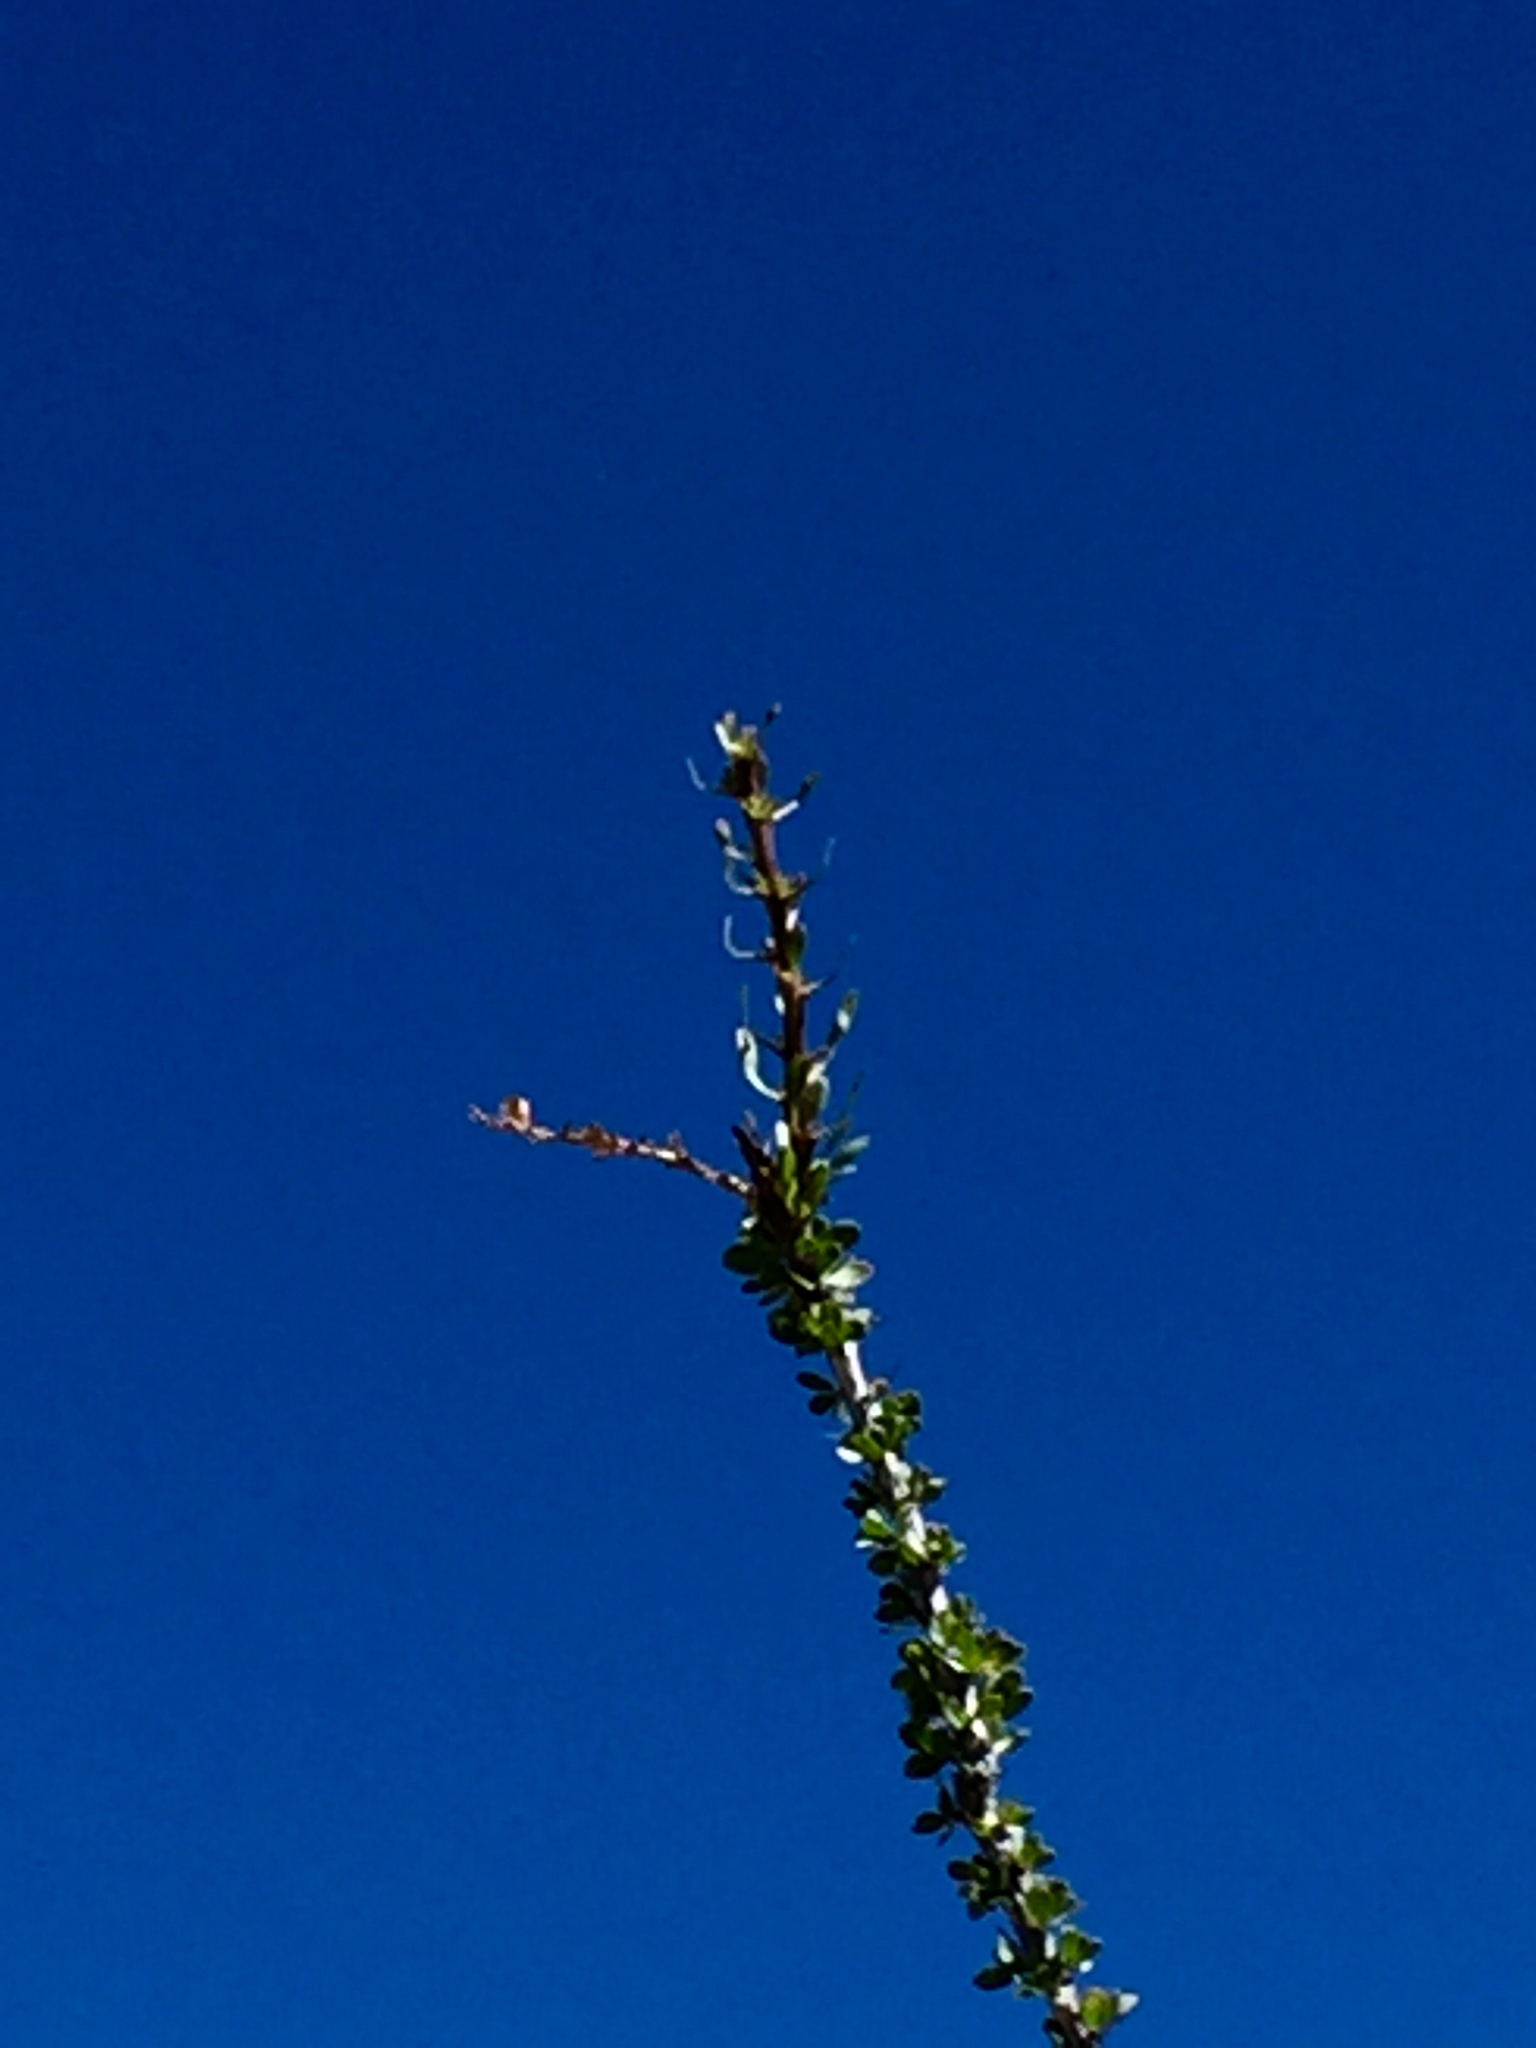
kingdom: Plantae
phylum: Tracheophyta
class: Magnoliopsida
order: Ericales
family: Fouquieriaceae
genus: Fouquieria
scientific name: Fouquieria splendens
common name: Vine-cactus
